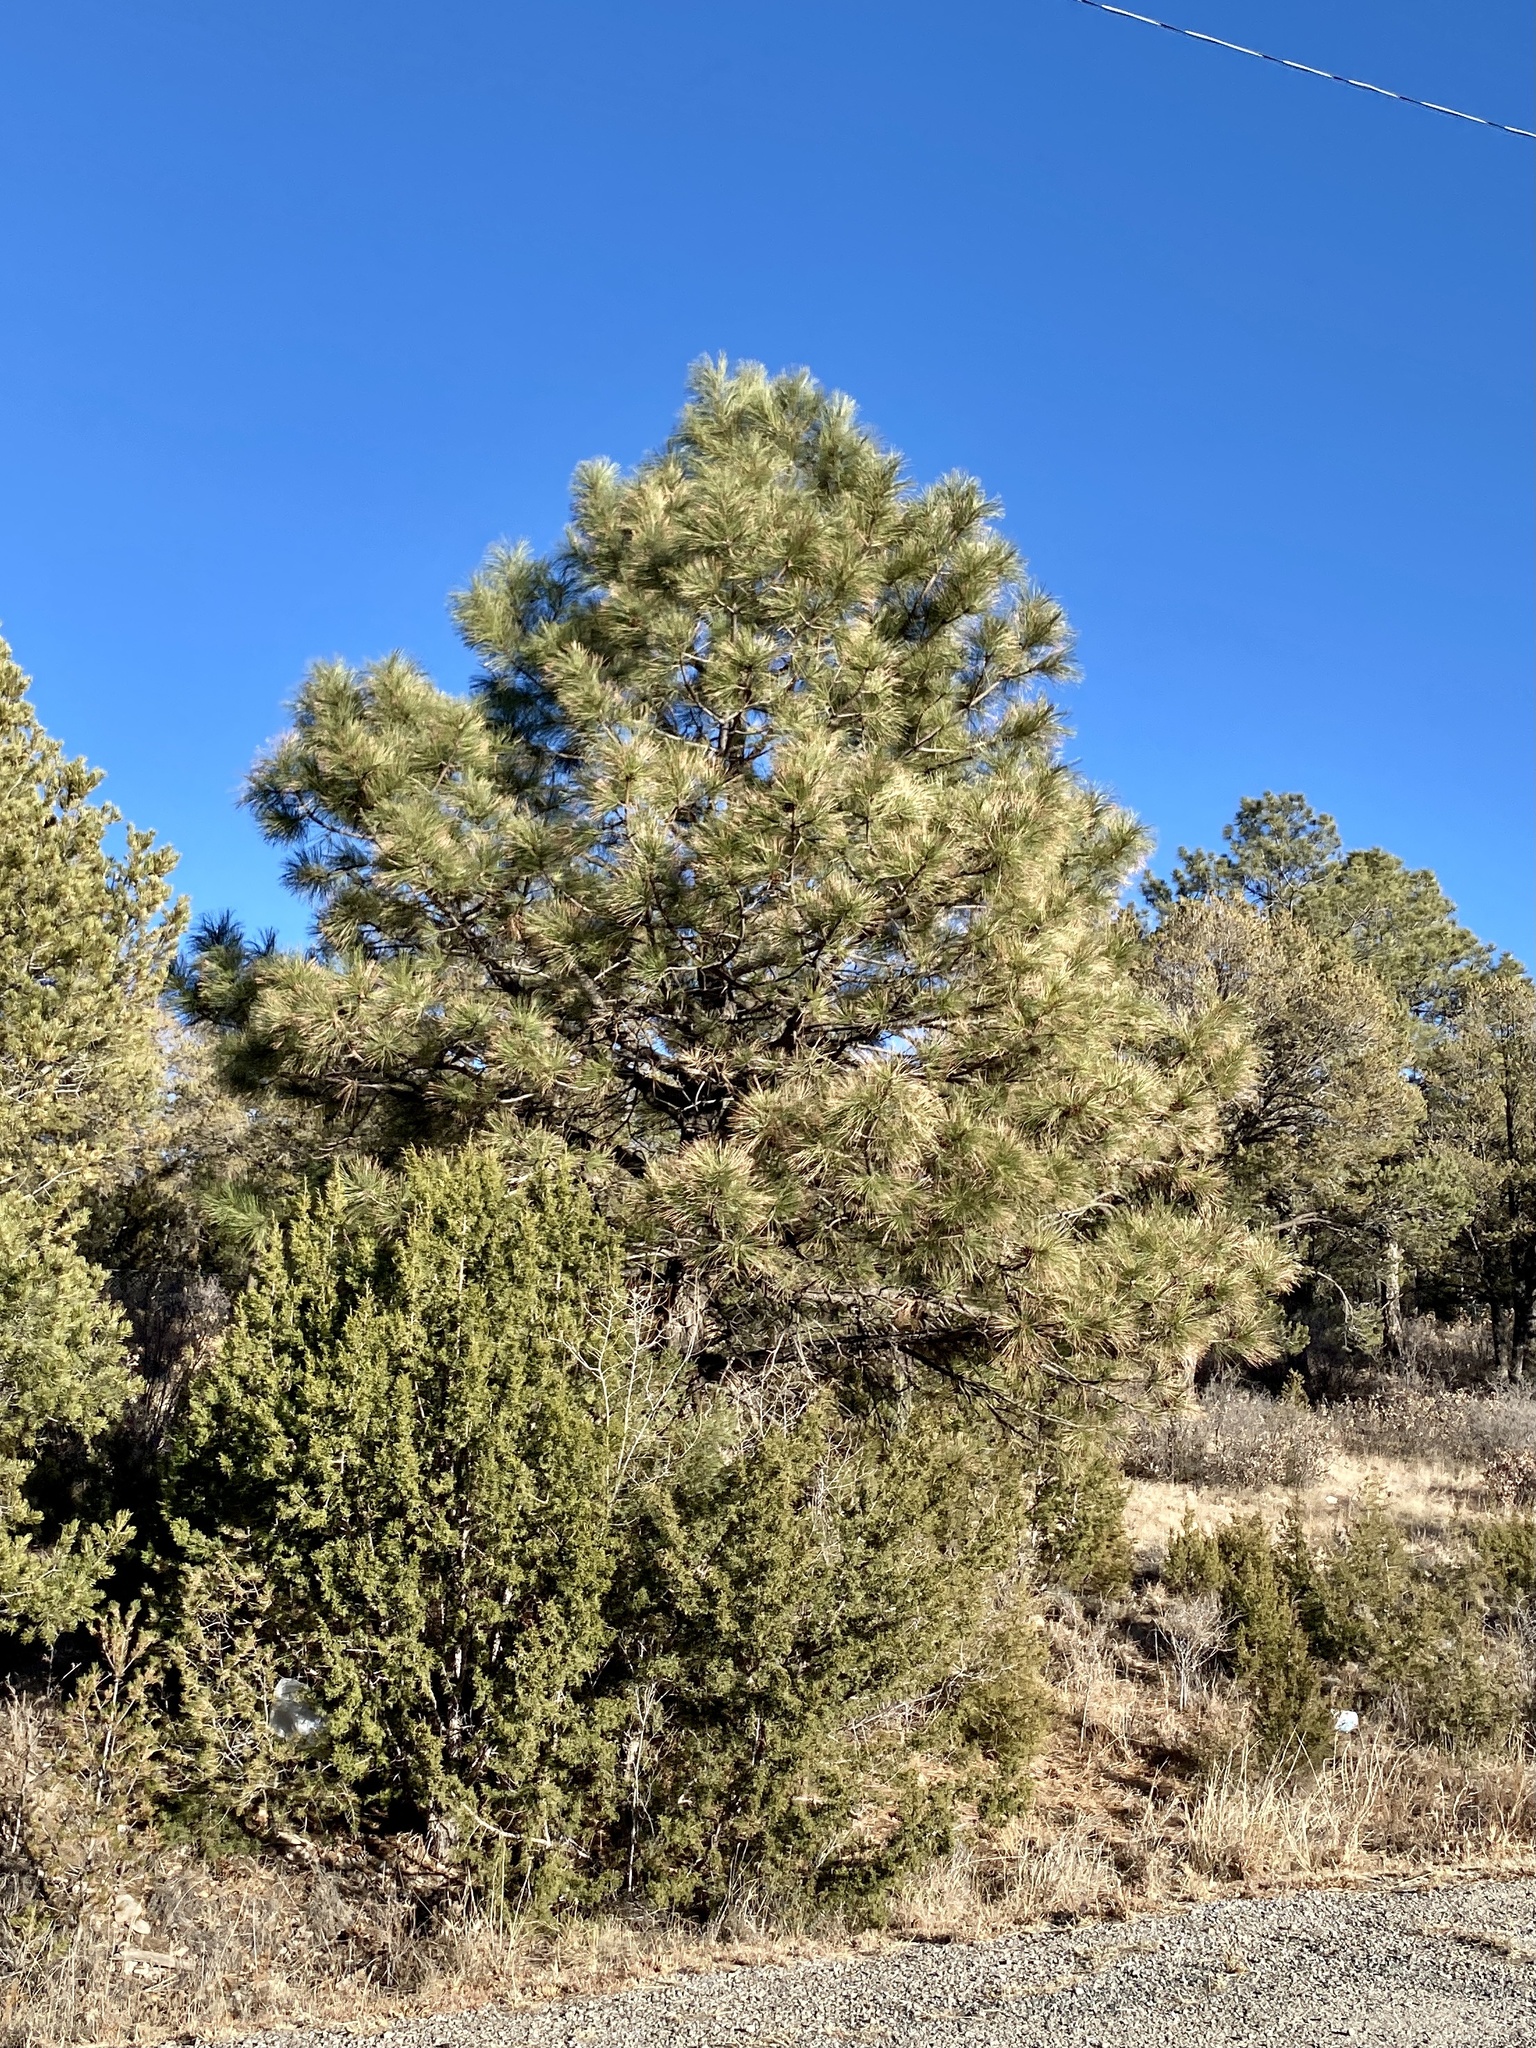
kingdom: Plantae
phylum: Tracheophyta
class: Pinopsida
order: Pinales
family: Pinaceae
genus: Pinus
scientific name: Pinus ponderosa
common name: Western yellow-pine
